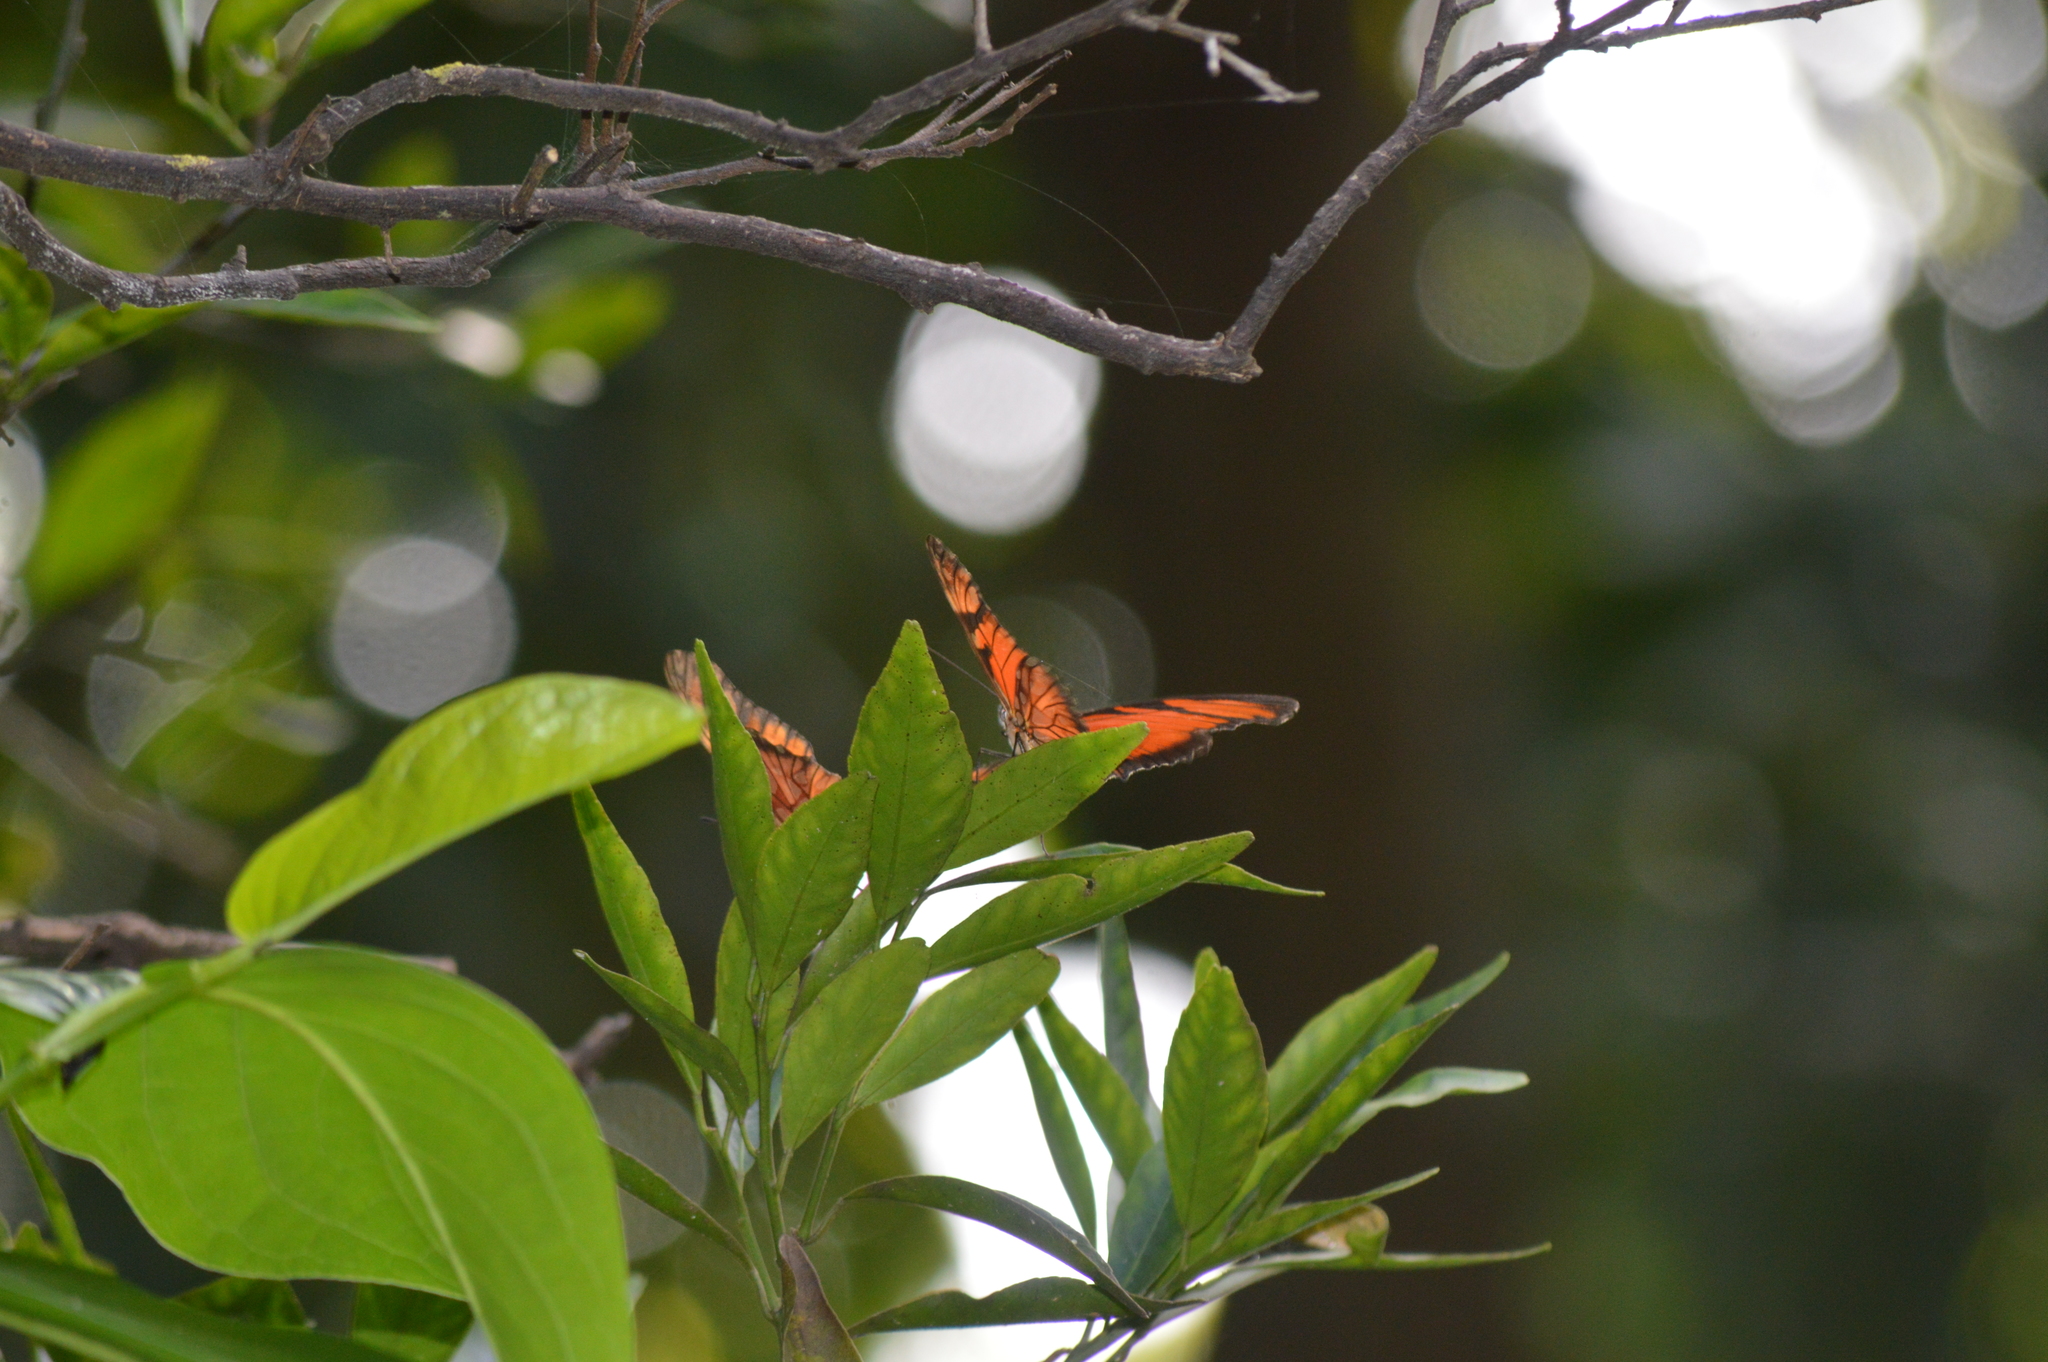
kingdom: Animalia
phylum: Arthropoda
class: Insecta
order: Lepidoptera
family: Nymphalidae
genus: Dione
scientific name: Dione juno
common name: Juno silverspot
